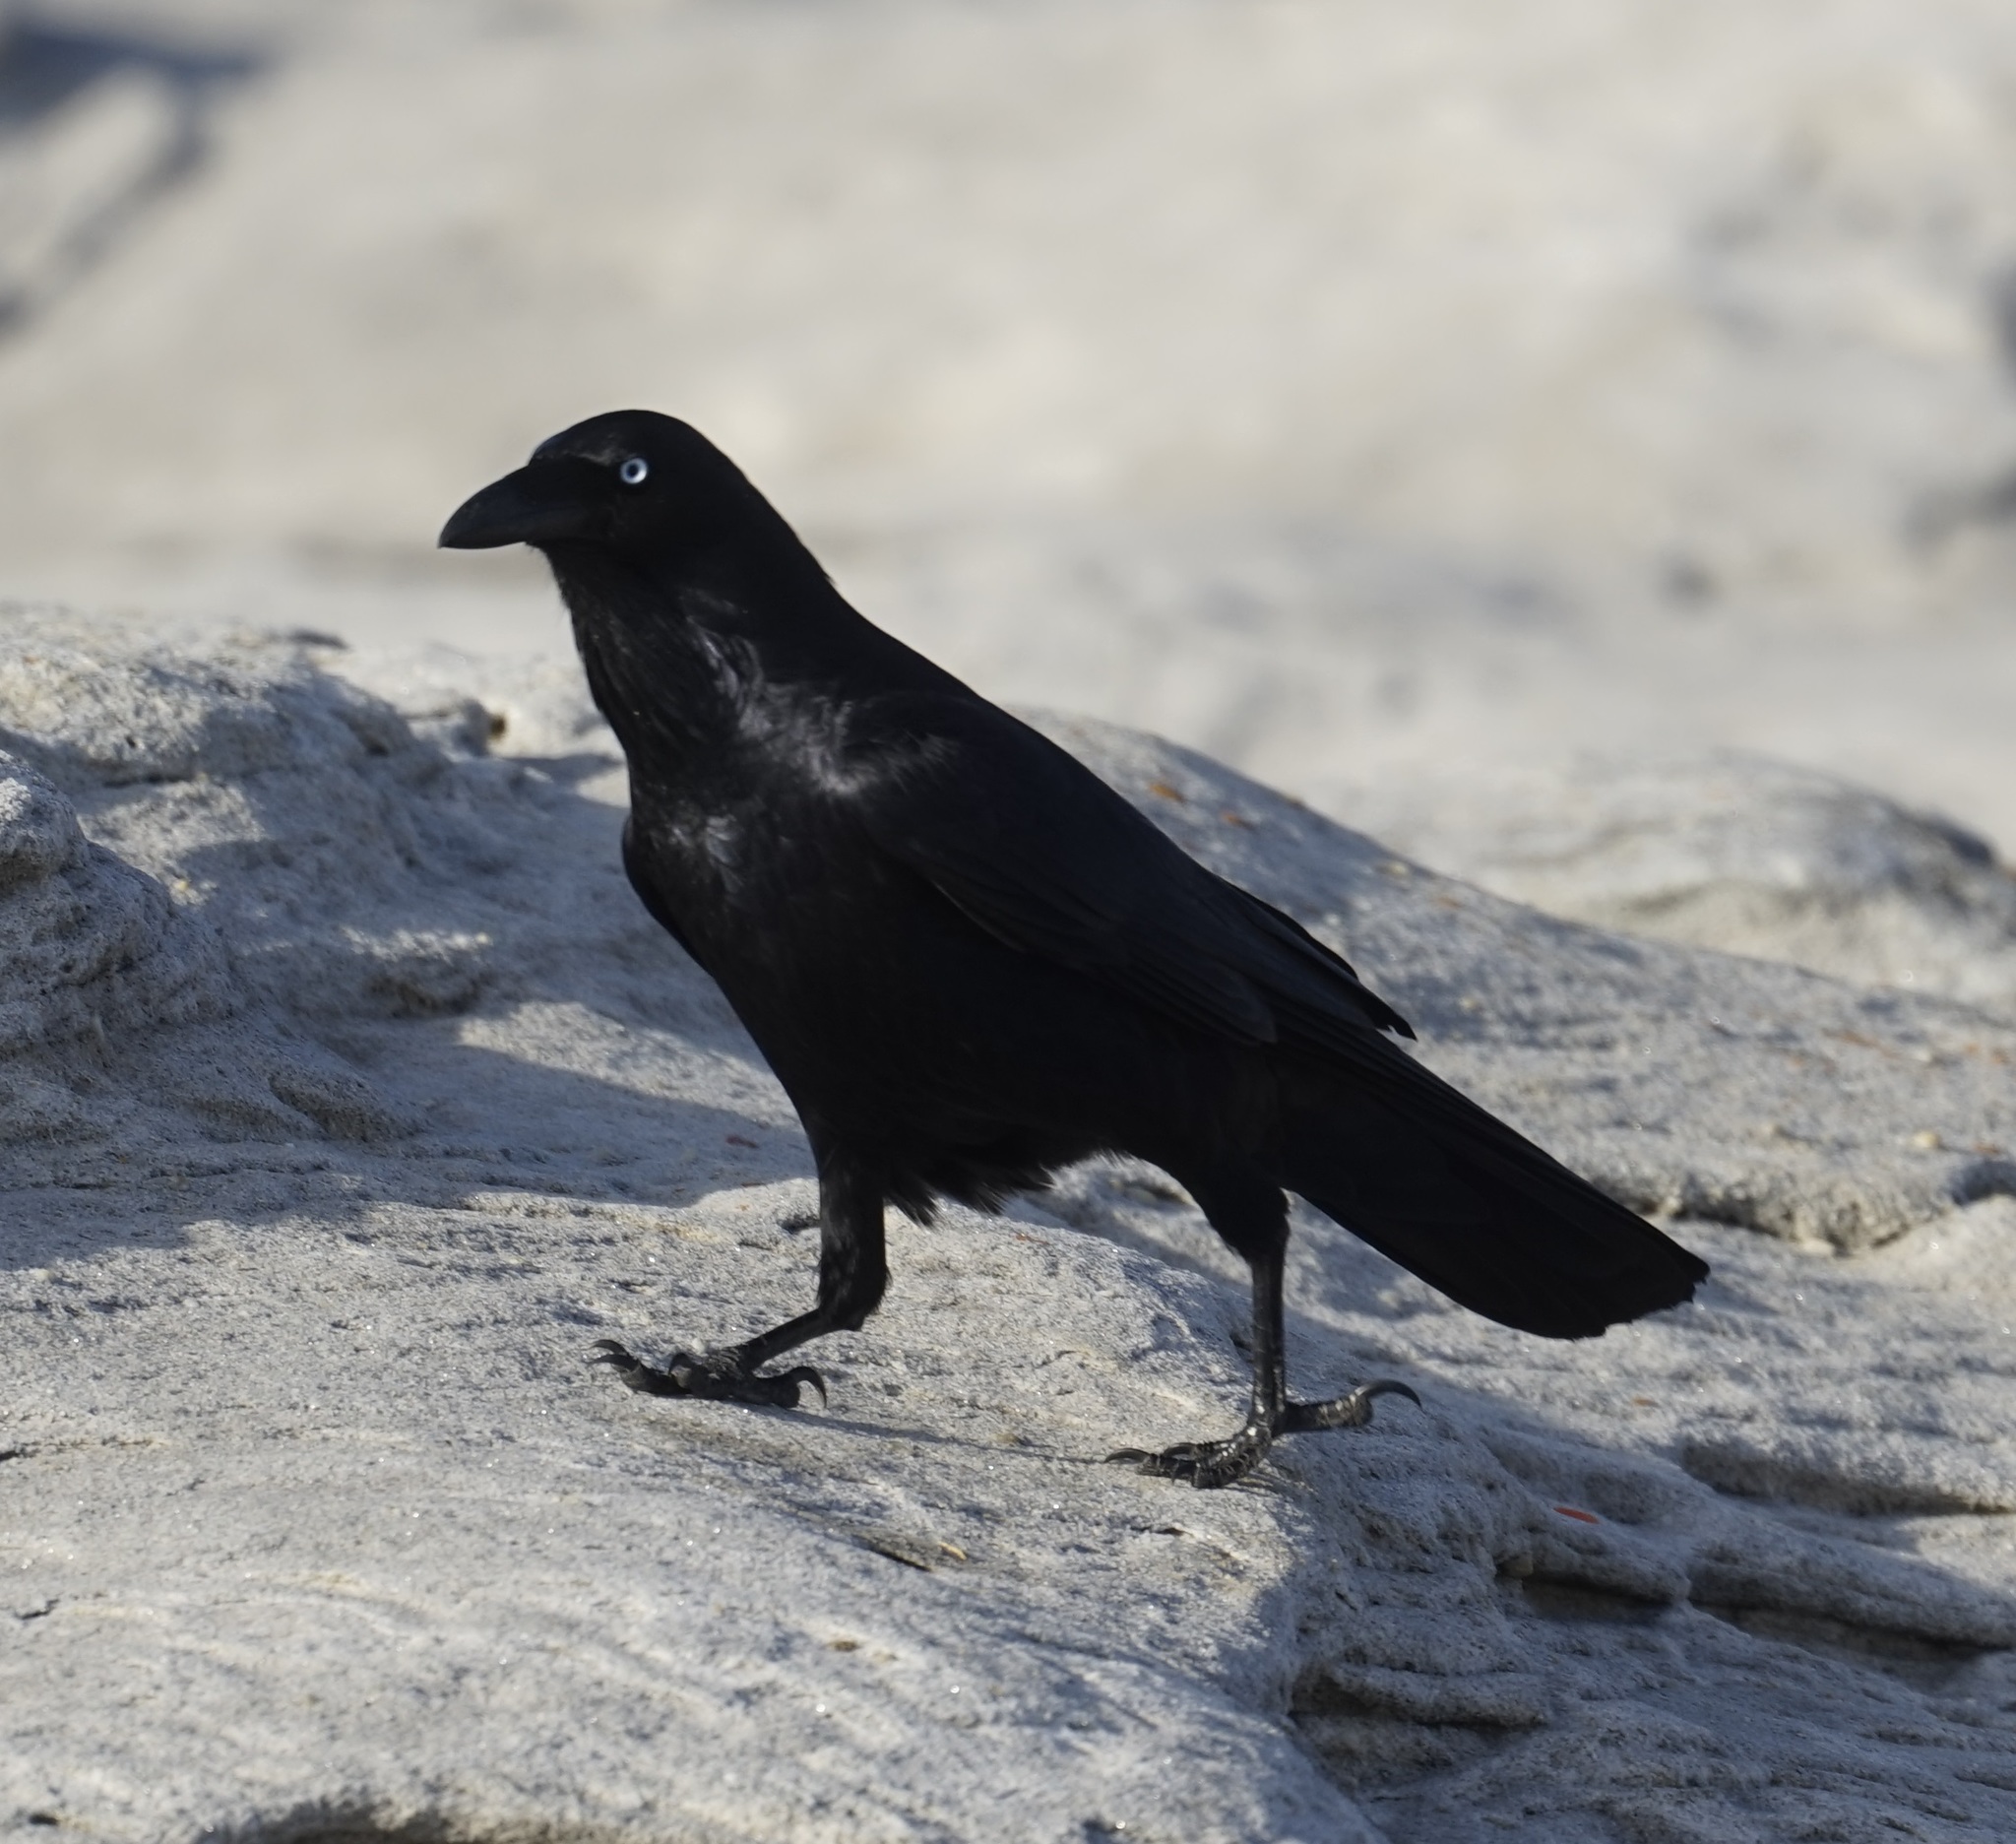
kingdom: Animalia
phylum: Chordata
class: Aves
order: Passeriformes
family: Corvidae
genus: Corvus
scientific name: Corvus coronoides
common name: Australian raven
